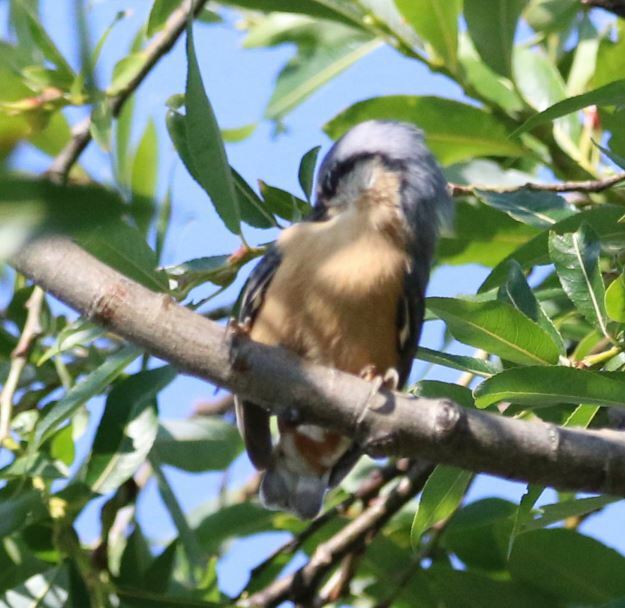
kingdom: Animalia
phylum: Chordata
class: Aves
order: Passeriformes
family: Sittidae
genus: Sitta
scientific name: Sitta europaea
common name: Eurasian nuthatch
